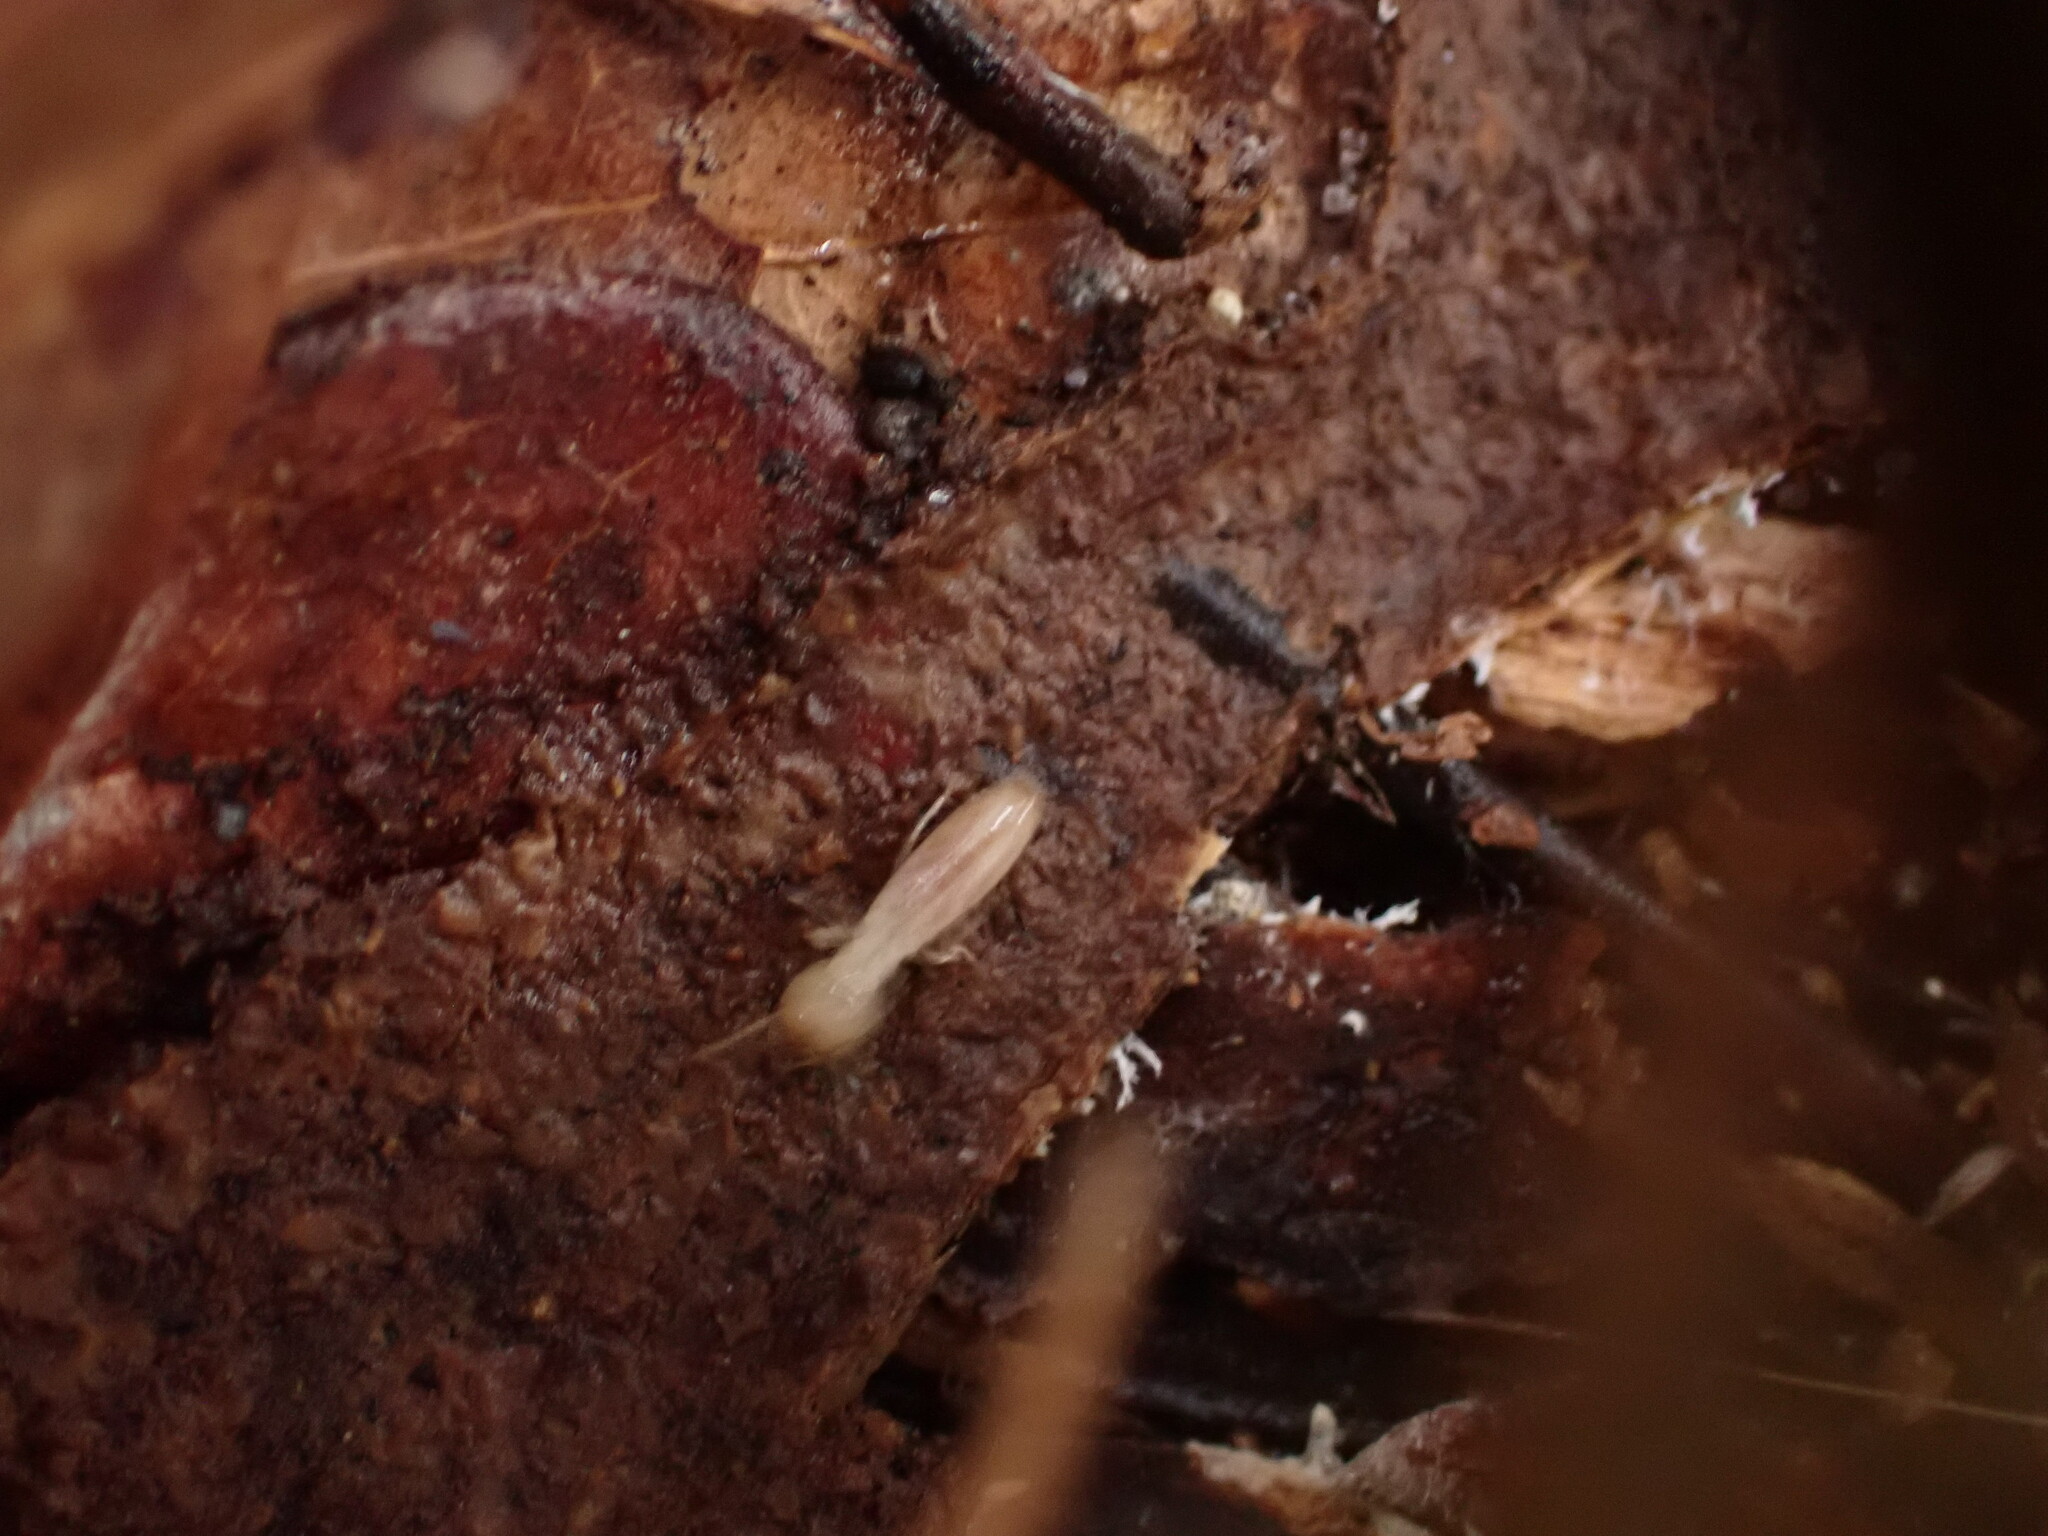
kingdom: Animalia
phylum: Arthropoda
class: Insecta
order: Blattodea
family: Rhinotermitidae
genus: Reticulitermes
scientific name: Reticulitermes flavipes
